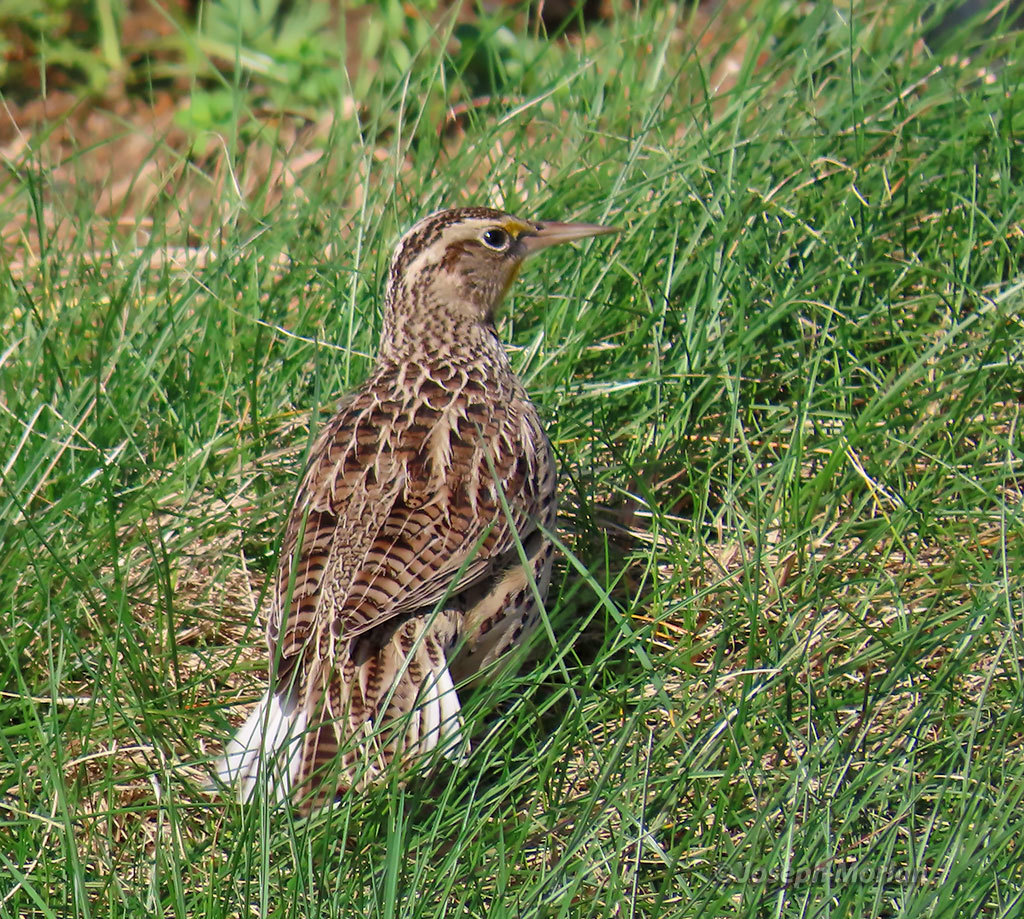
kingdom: Animalia
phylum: Chordata
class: Aves
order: Passeriformes
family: Icteridae
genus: Sturnella
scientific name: Sturnella neglecta
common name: Western meadowlark
